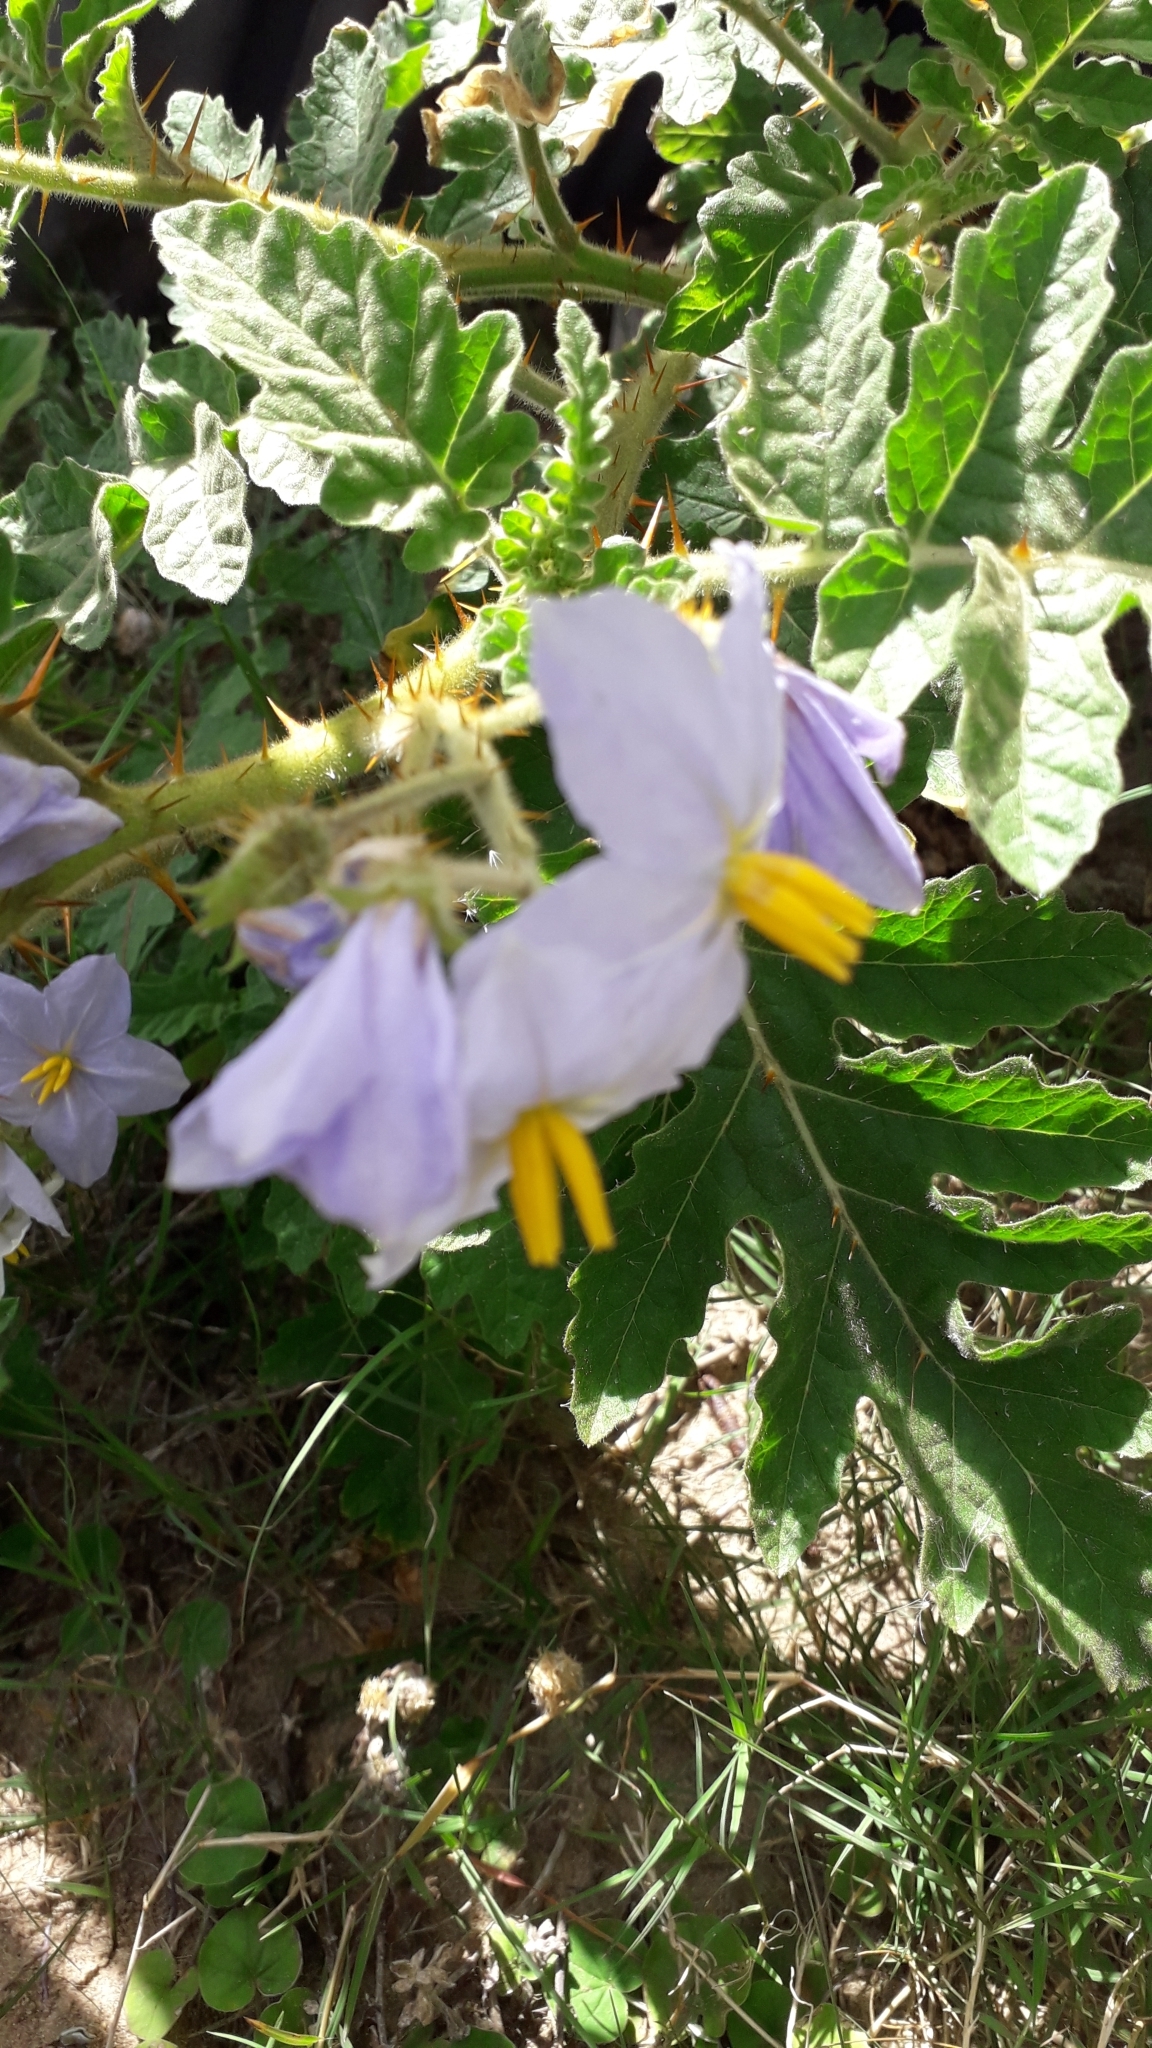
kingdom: Plantae
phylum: Tracheophyta
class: Magnoliopsida
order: Solanales
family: Solanaceae
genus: Solanum
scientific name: Solanum sisymbriifolium
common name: Red buffalo-bur
